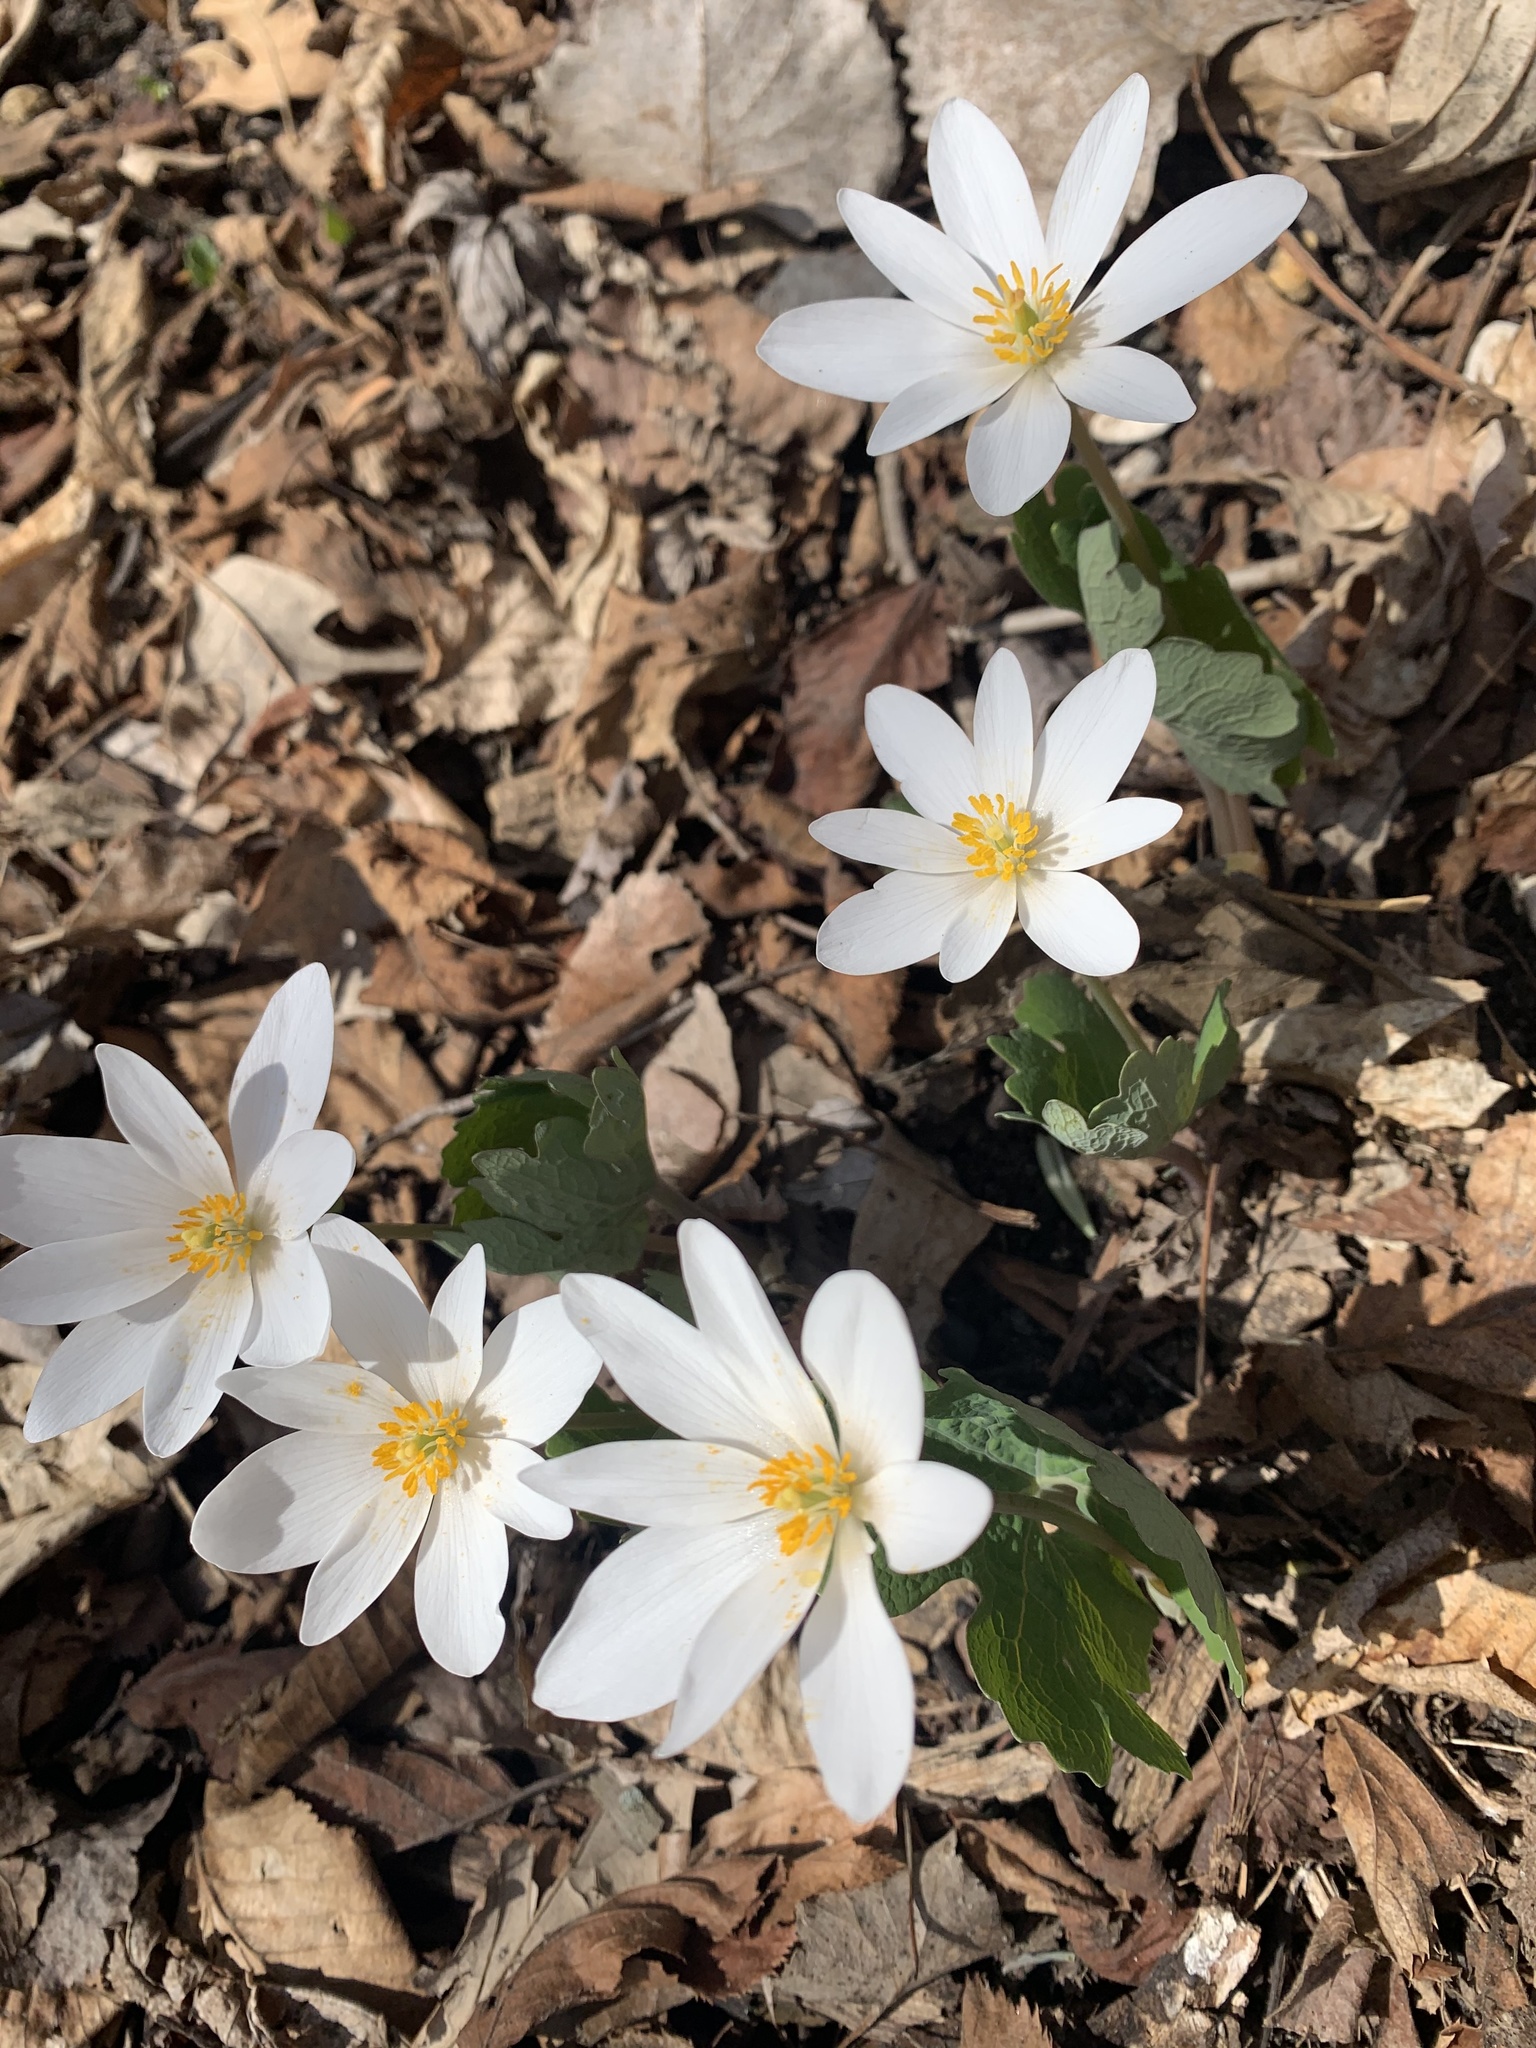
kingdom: Plantae
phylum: Tracheophyta
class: Magnoliopsida
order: Ranunculales
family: Papaveraceae
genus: Sanguinaria
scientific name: Sanguinaria canadensis
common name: Bloodroot
